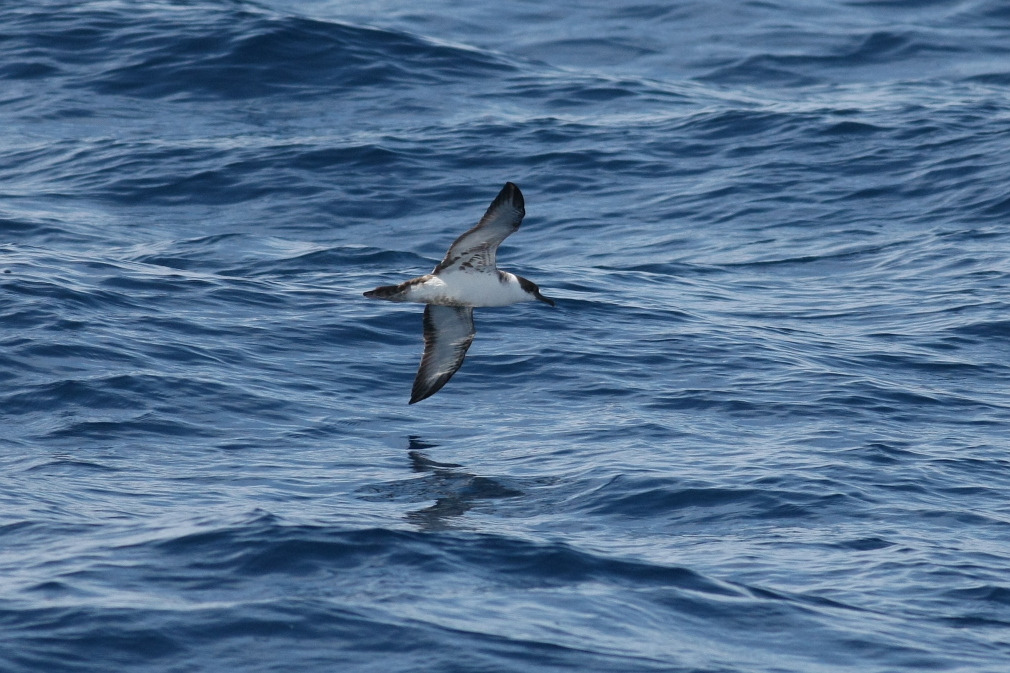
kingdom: Animalia
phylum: Chordata
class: Aves
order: Procellariiformes
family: Procellariidae
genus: Puffinus
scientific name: Puffinus gravis
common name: Great shearwater
